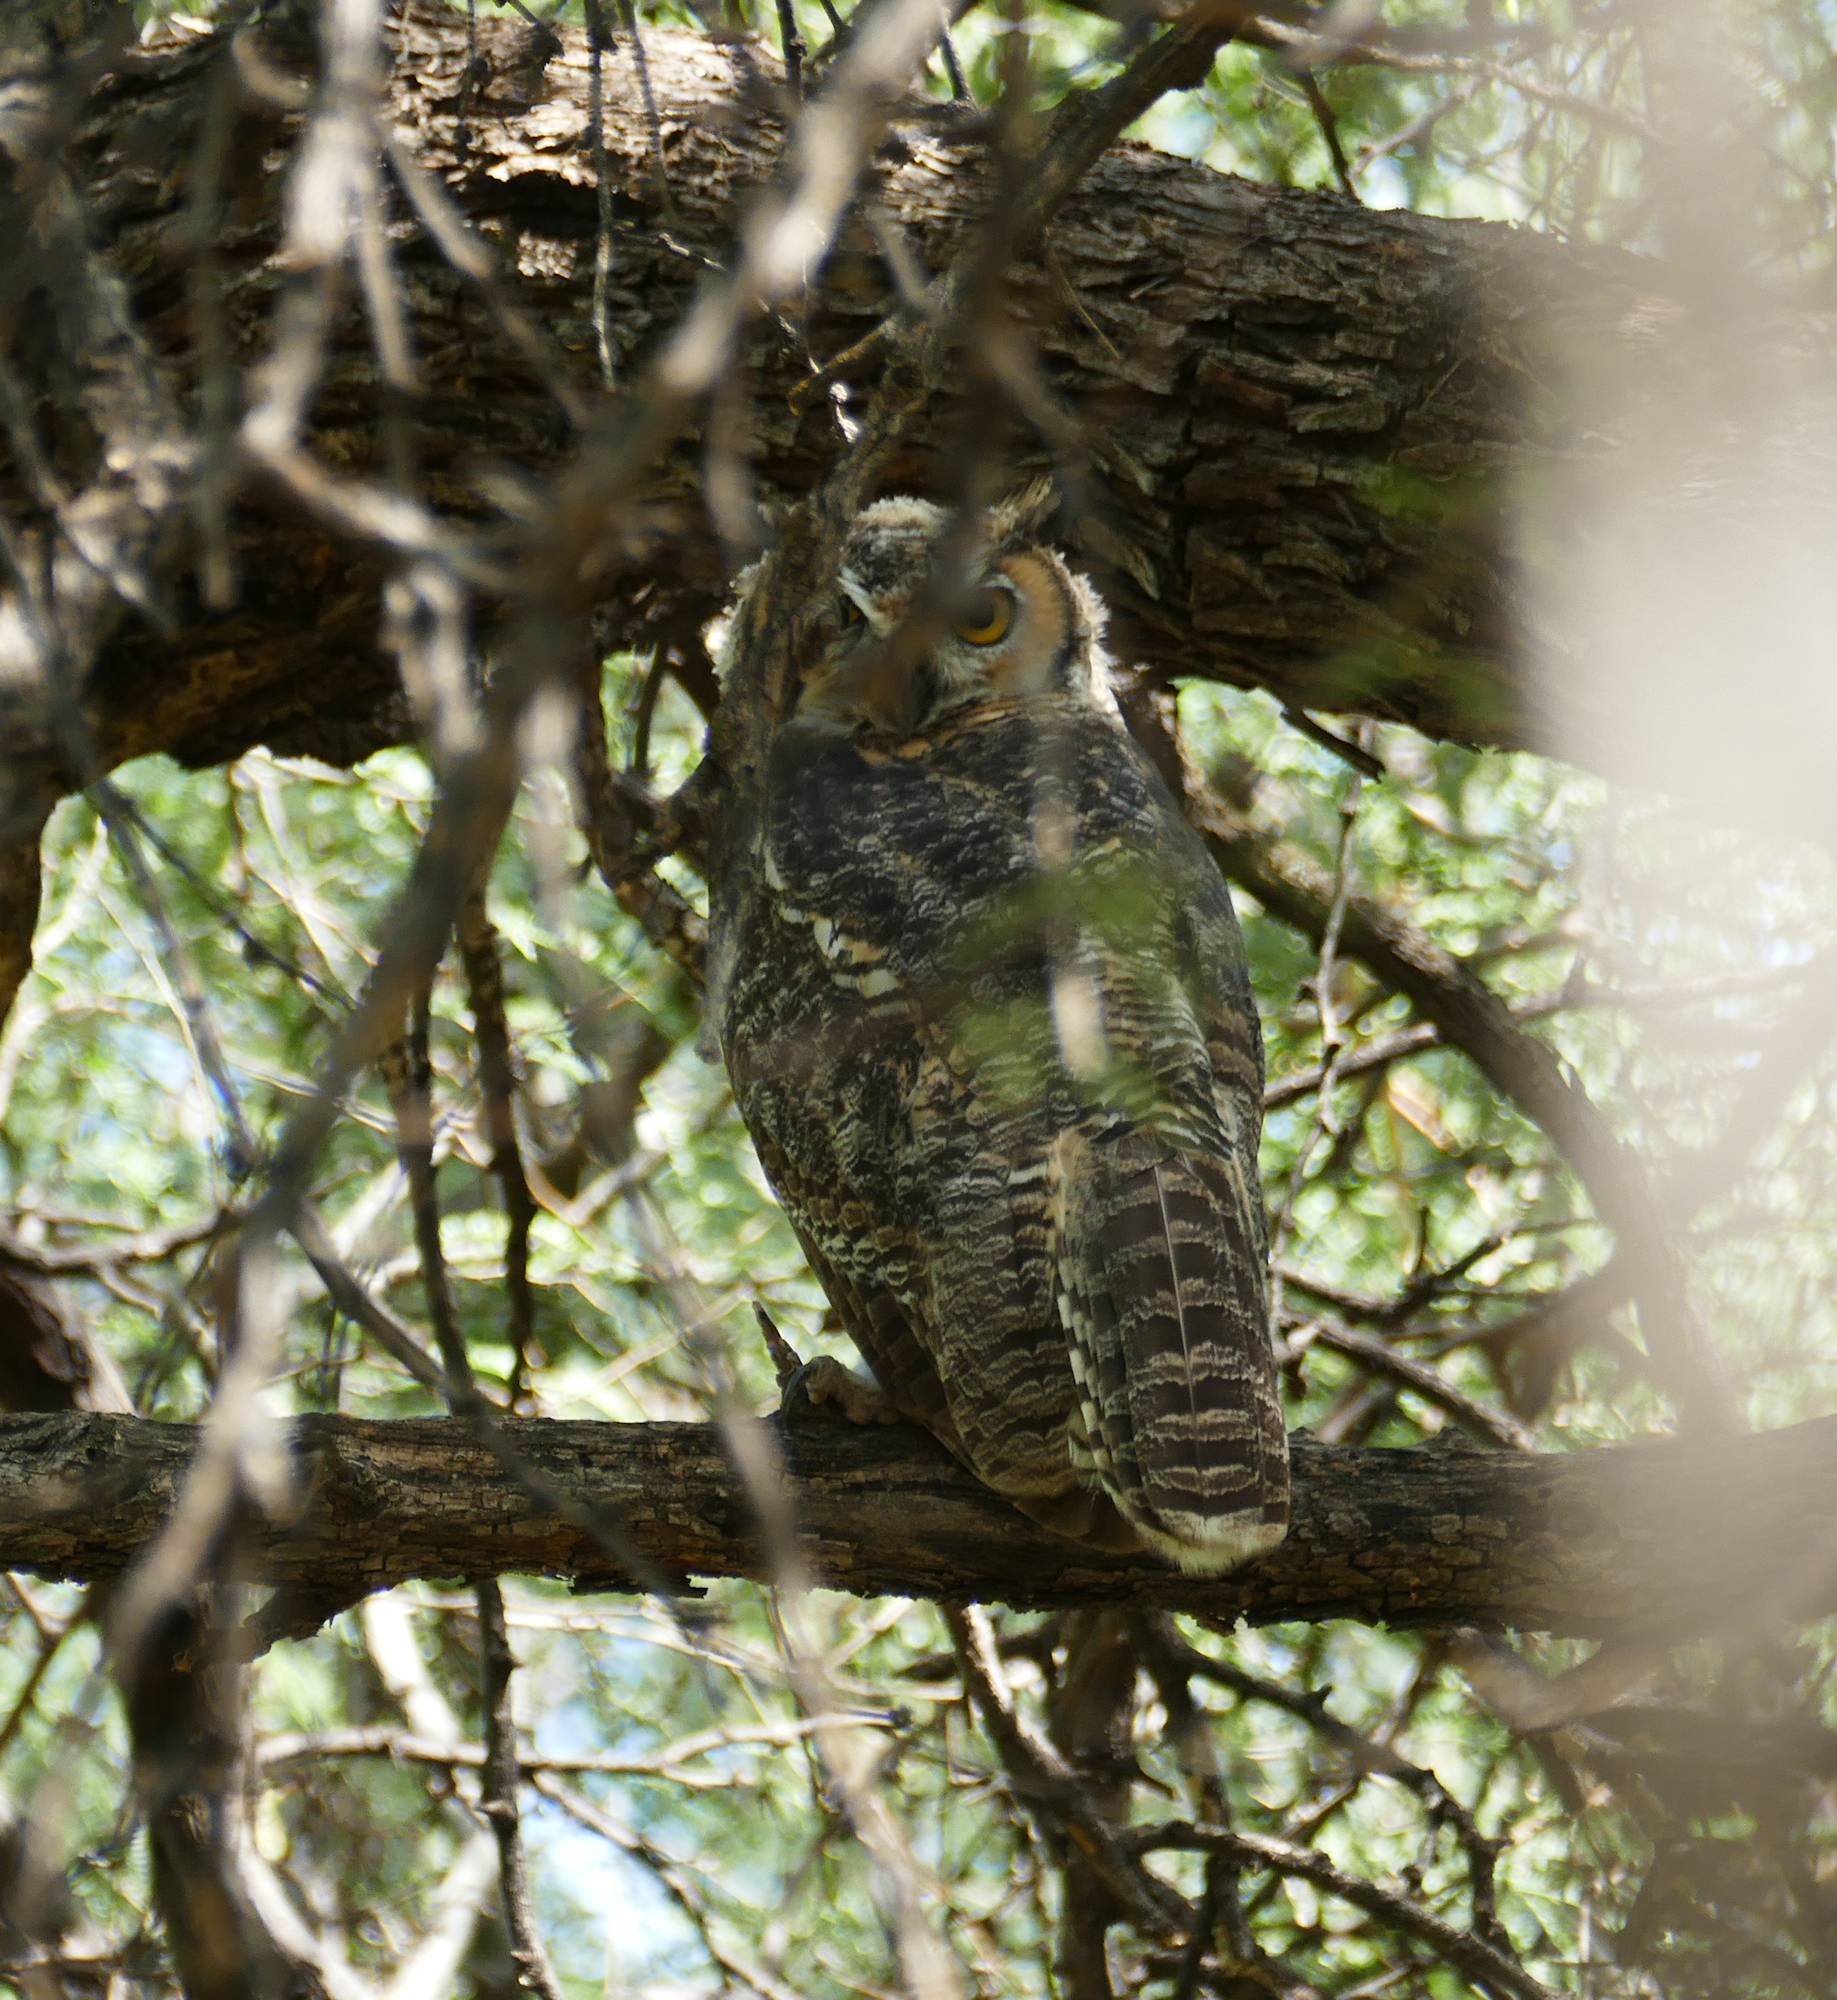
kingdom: Animalia
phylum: Chordata
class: Aves
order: Strigiformes
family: Strigidae
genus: Bubo
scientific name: Bubo virginianus
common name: Great horned owl
